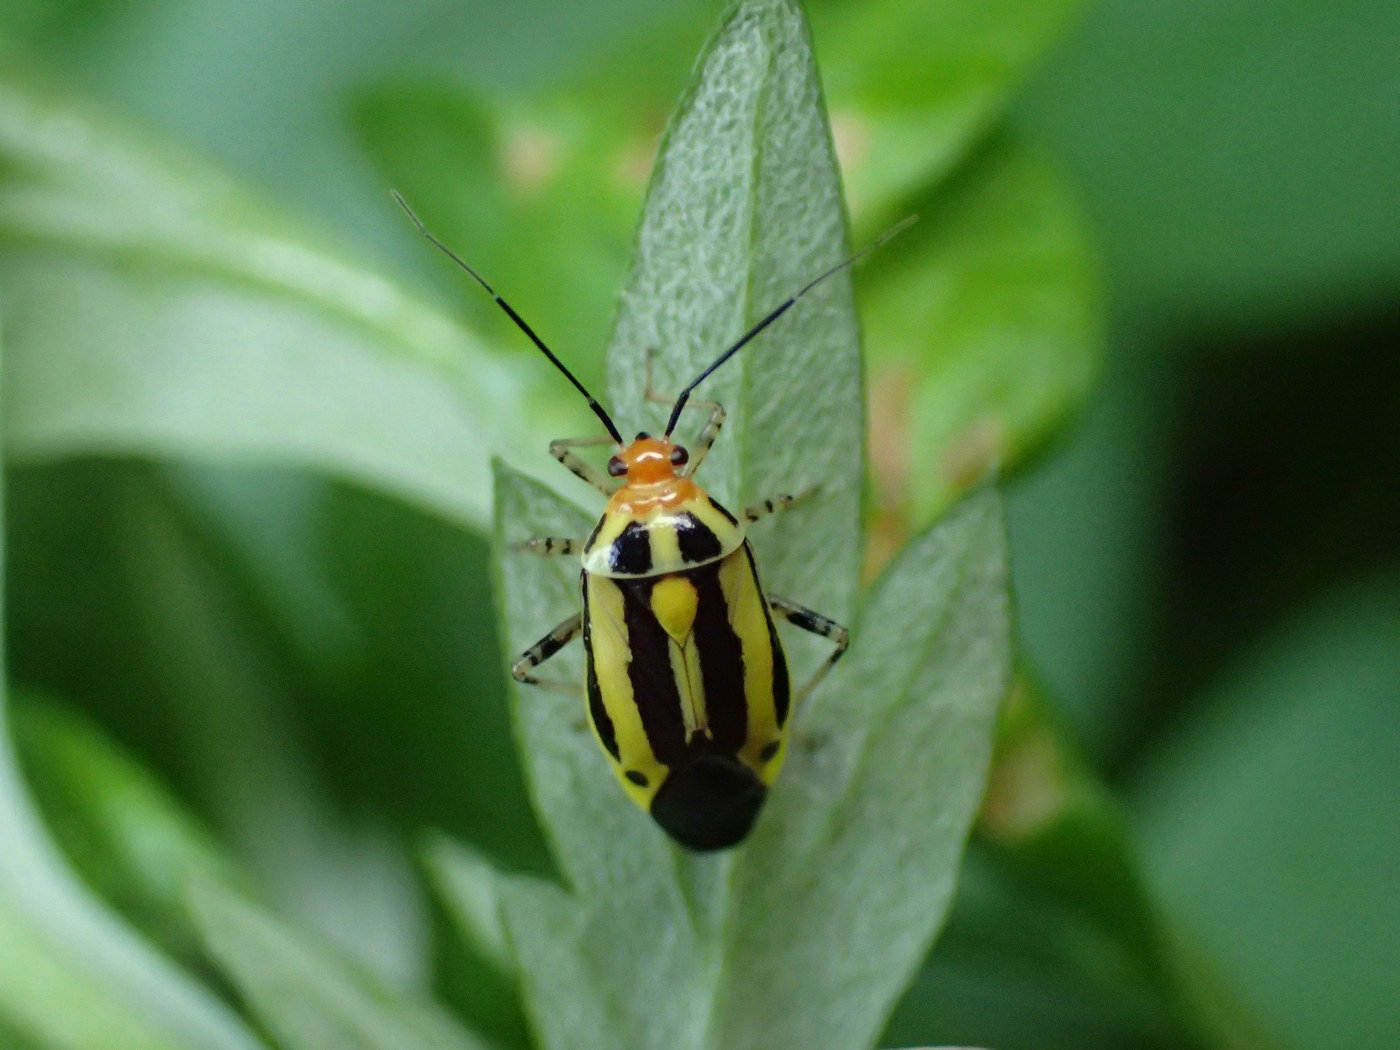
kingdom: Animalia
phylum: Arthropoda
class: Insecta
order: Hemiptera
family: Miridae
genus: Poecilocapsus
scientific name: Poecilocapsus lineatus
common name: Four-lined plant bug
